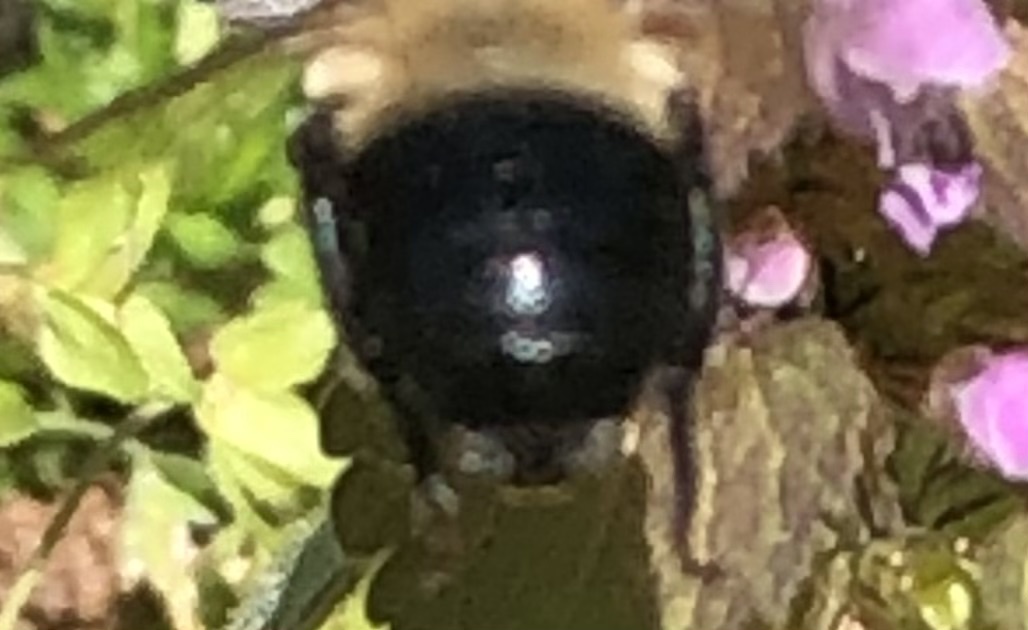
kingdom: Animalia
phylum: Arthropoda
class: Insecta
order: Hymenoptera
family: Apidae
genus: Habropoda
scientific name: Habropoda laboriosa
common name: Southeastern blueberry bee
